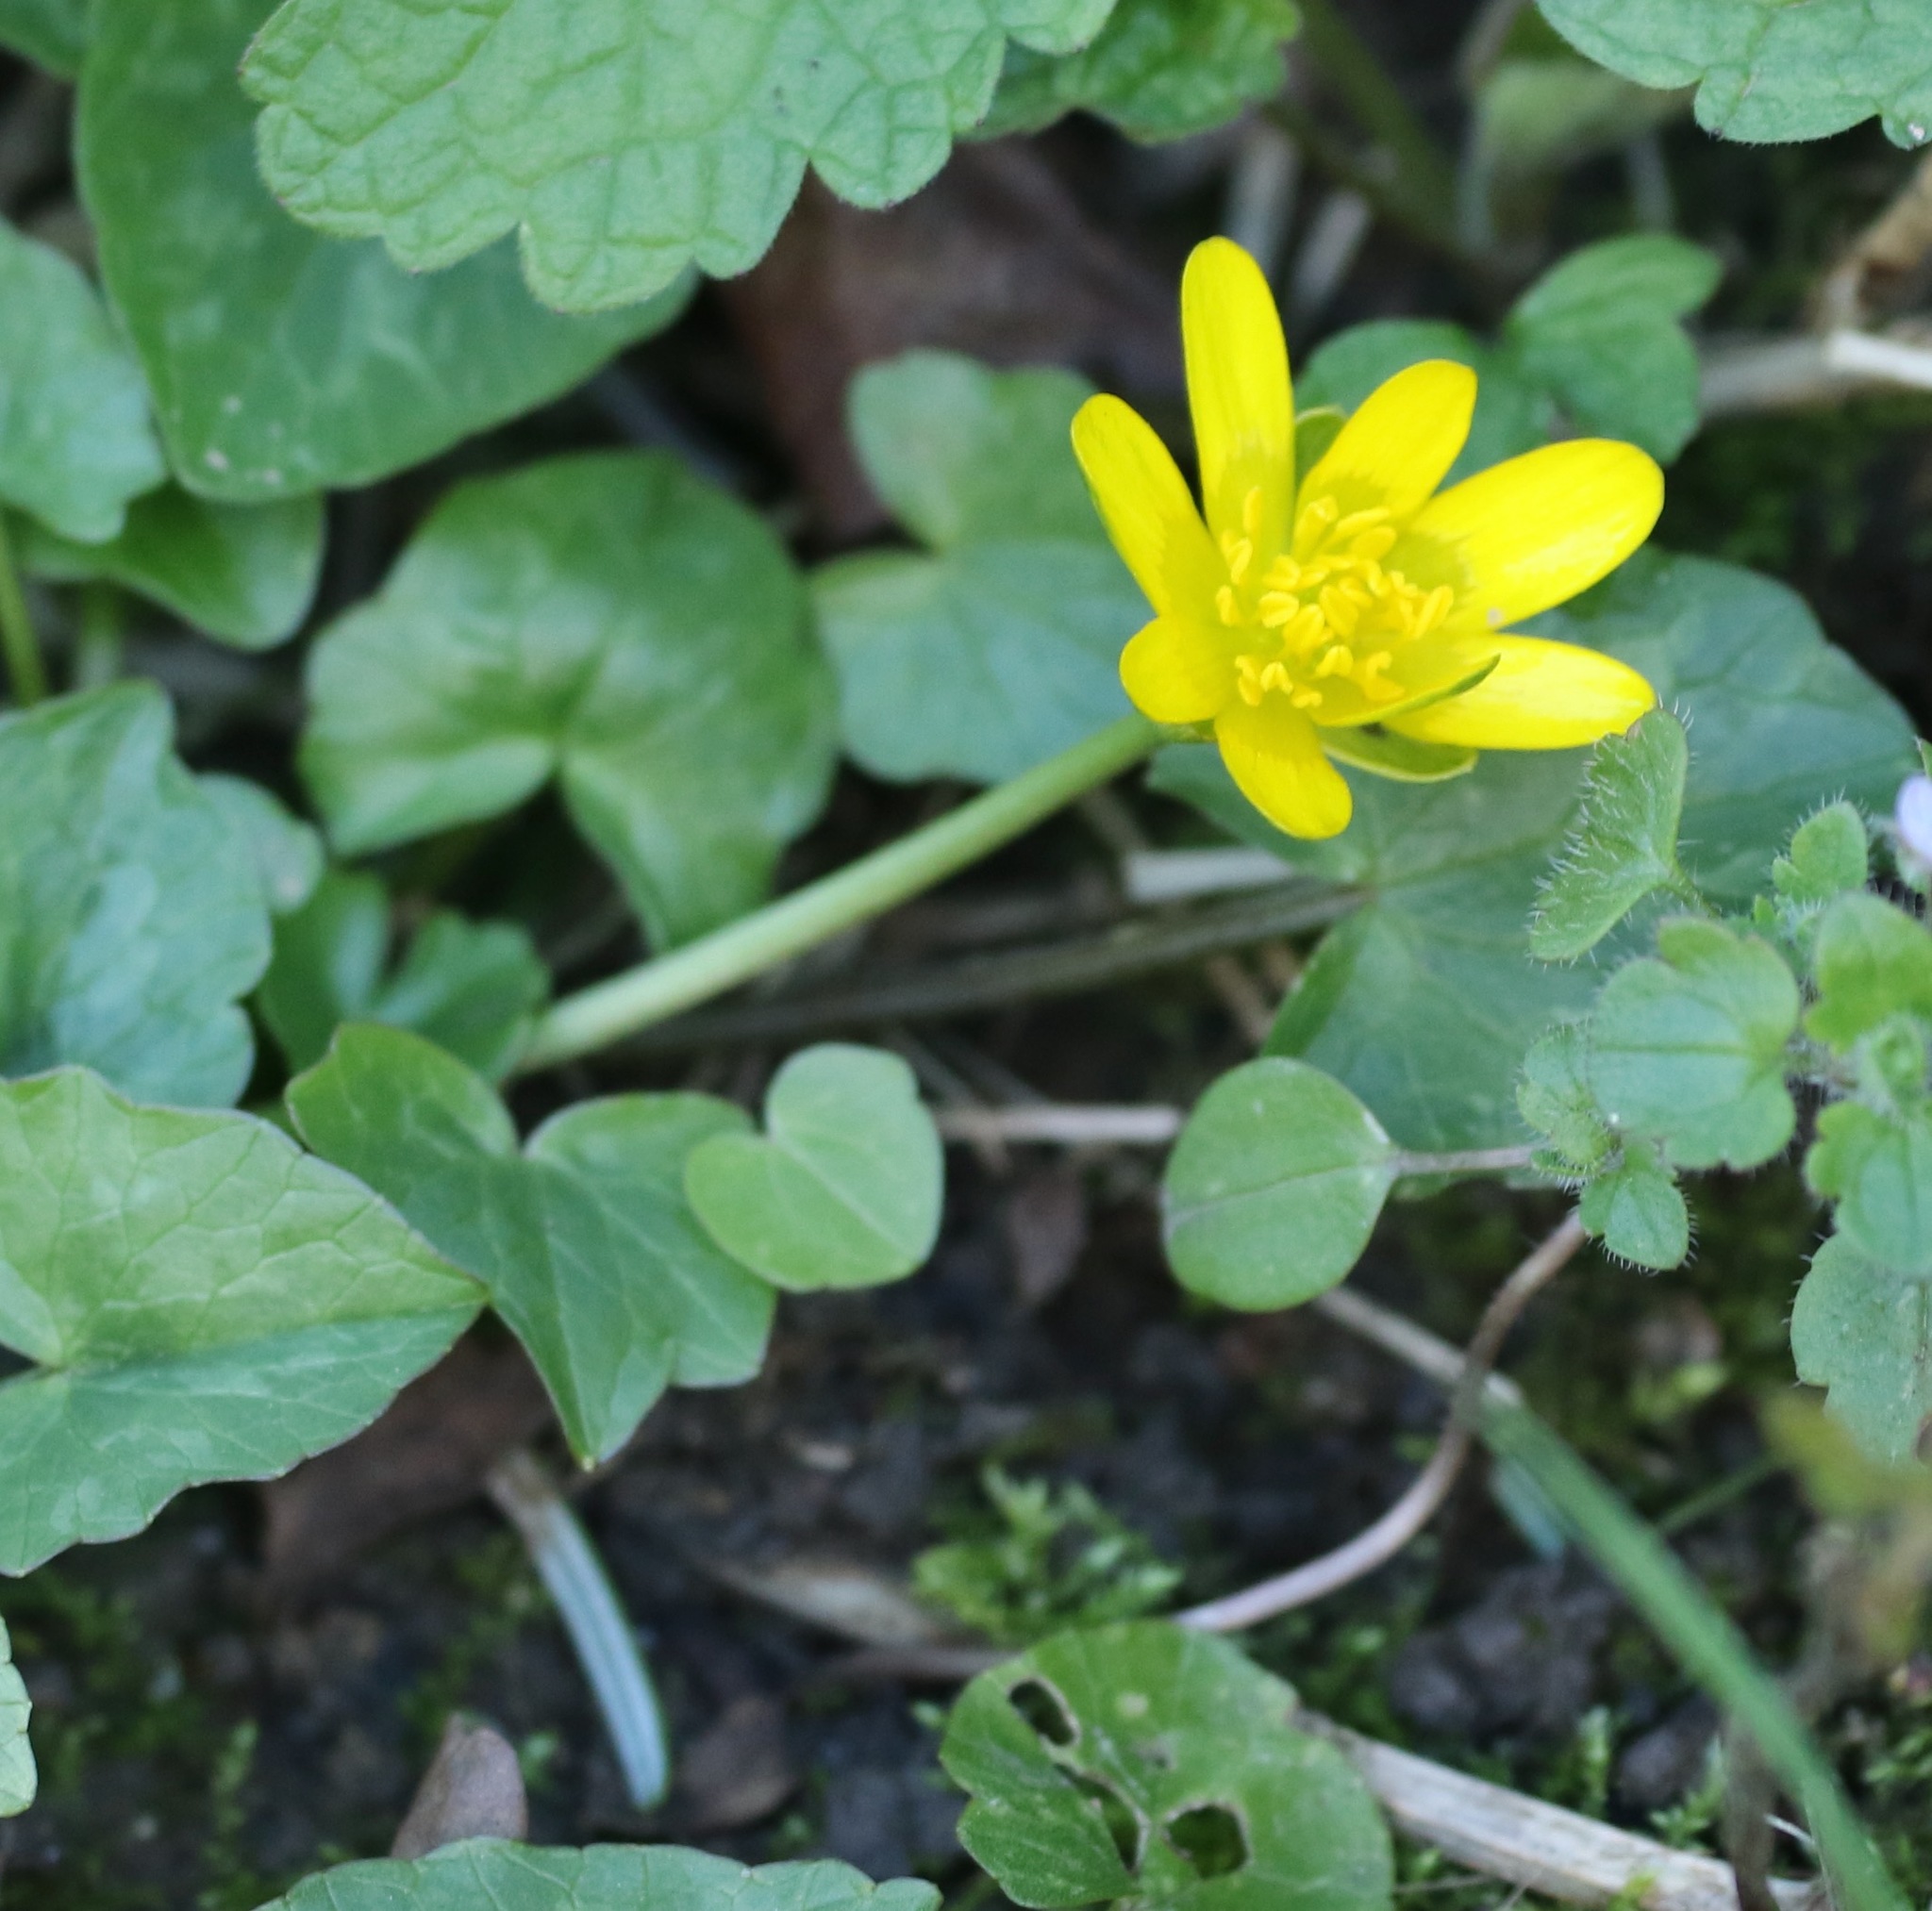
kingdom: Plantae
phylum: Tracheophyta
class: Magnoliopsida
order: Ranunculales
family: Ranunculaceae
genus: Ficaria
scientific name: Ficaria verna
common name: Lesser celandine
